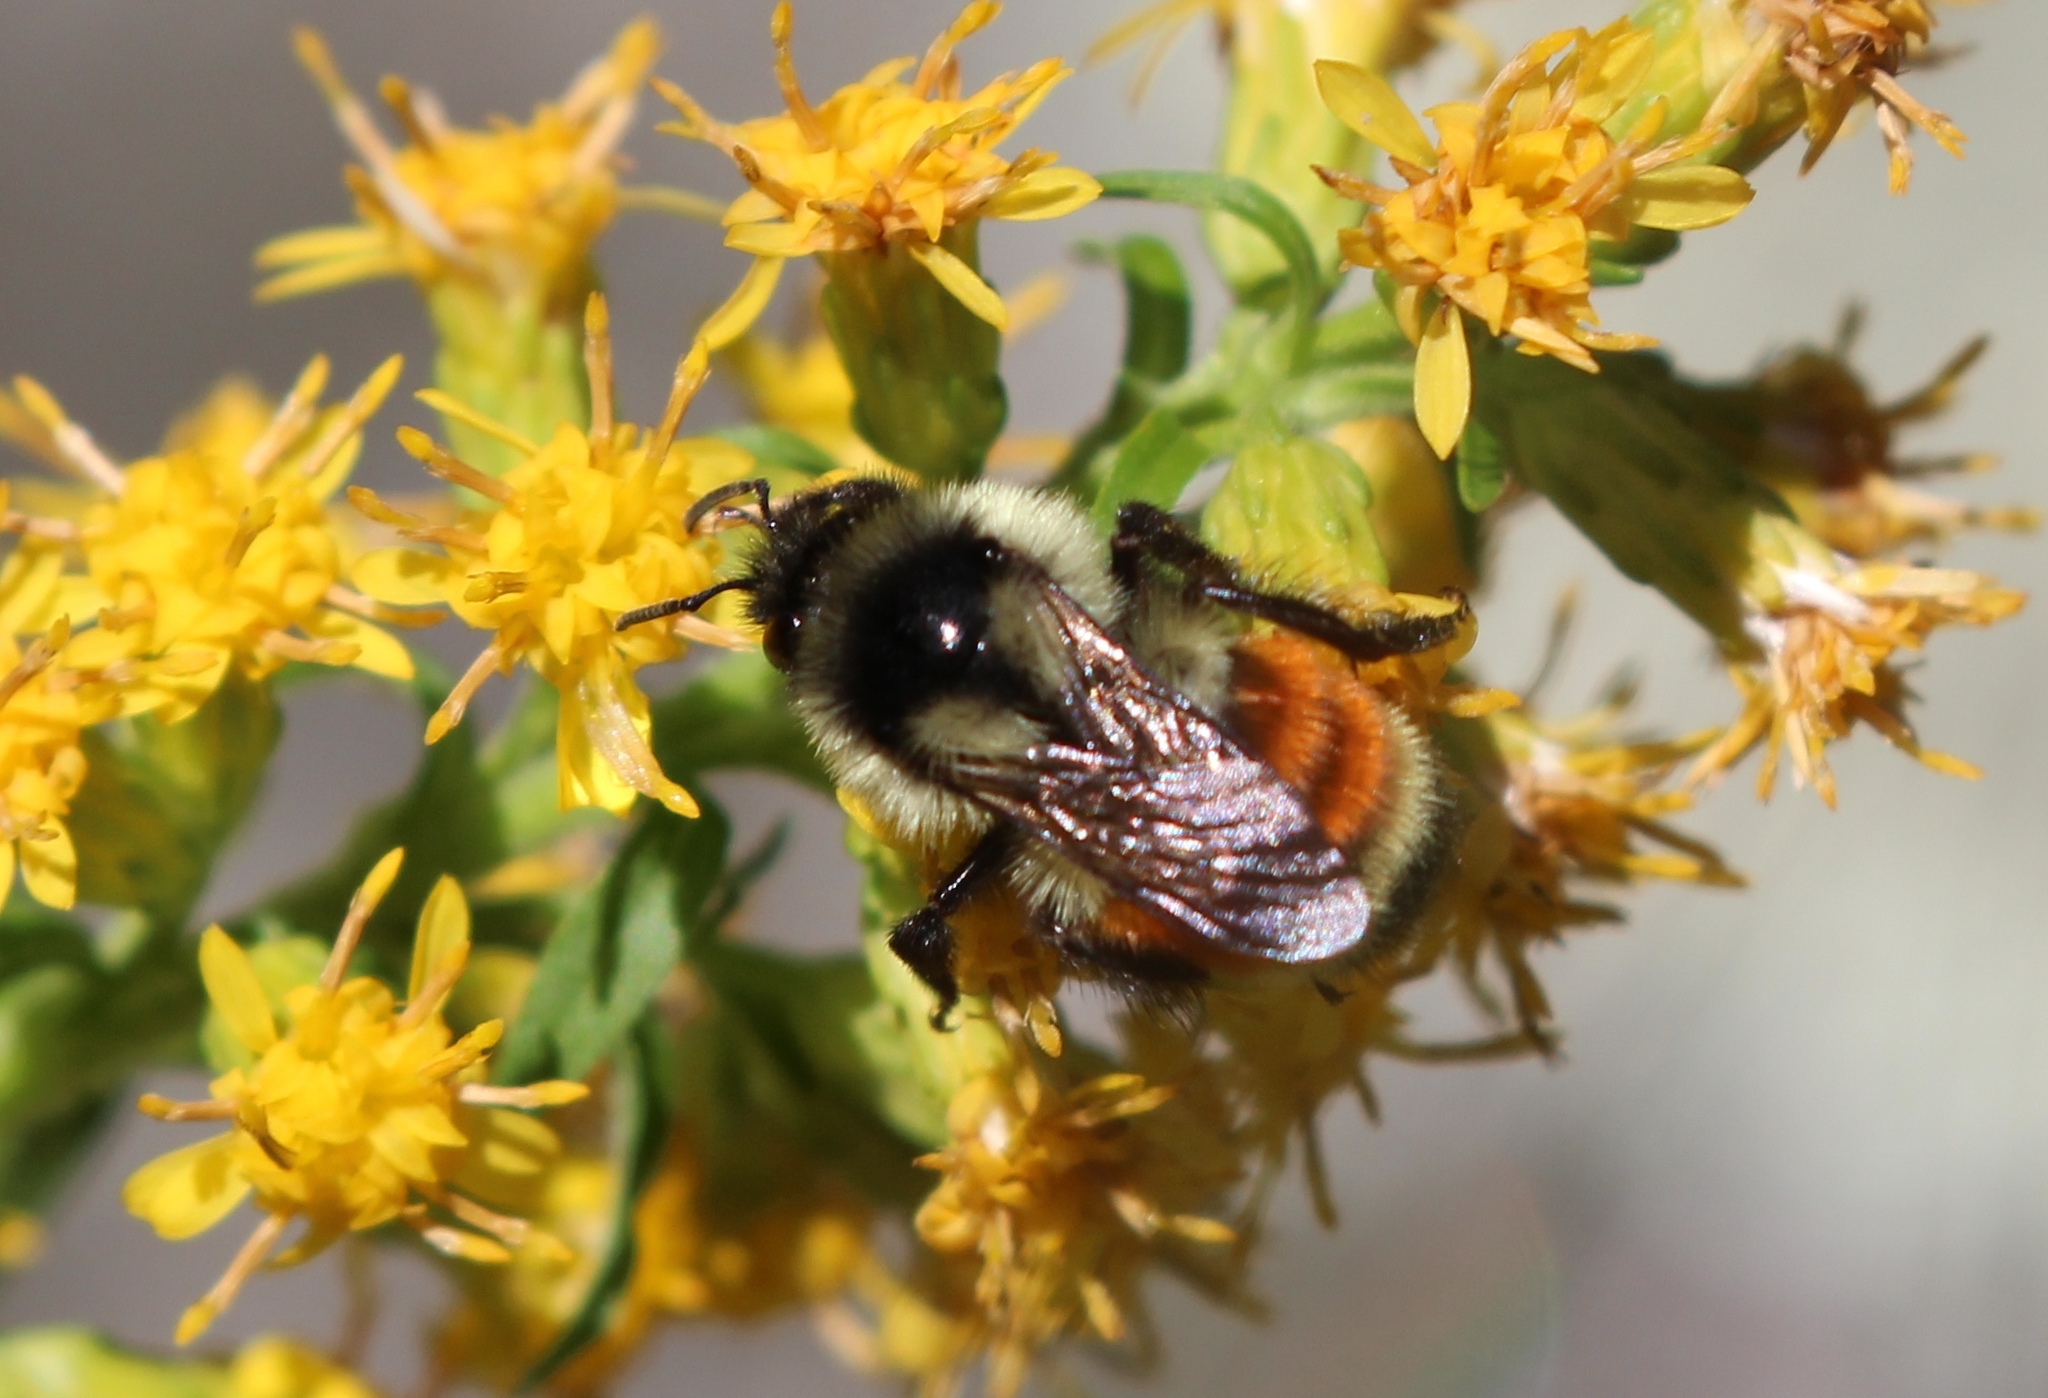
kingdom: Animalia
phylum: Arthropoda
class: Insecta
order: Hymenoptera
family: Apidae
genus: Bombus
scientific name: Bombus ternarius
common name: Tri-colored bumble bee
